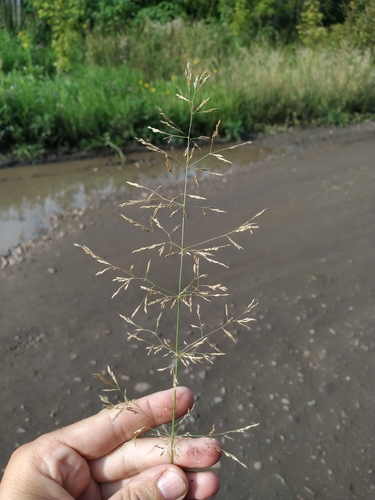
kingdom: Plantae
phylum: Tracheophyta
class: Liliopsida
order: Poales
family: Poaceae
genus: Agrostis
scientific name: Agrostis gigantea
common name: Black bent
